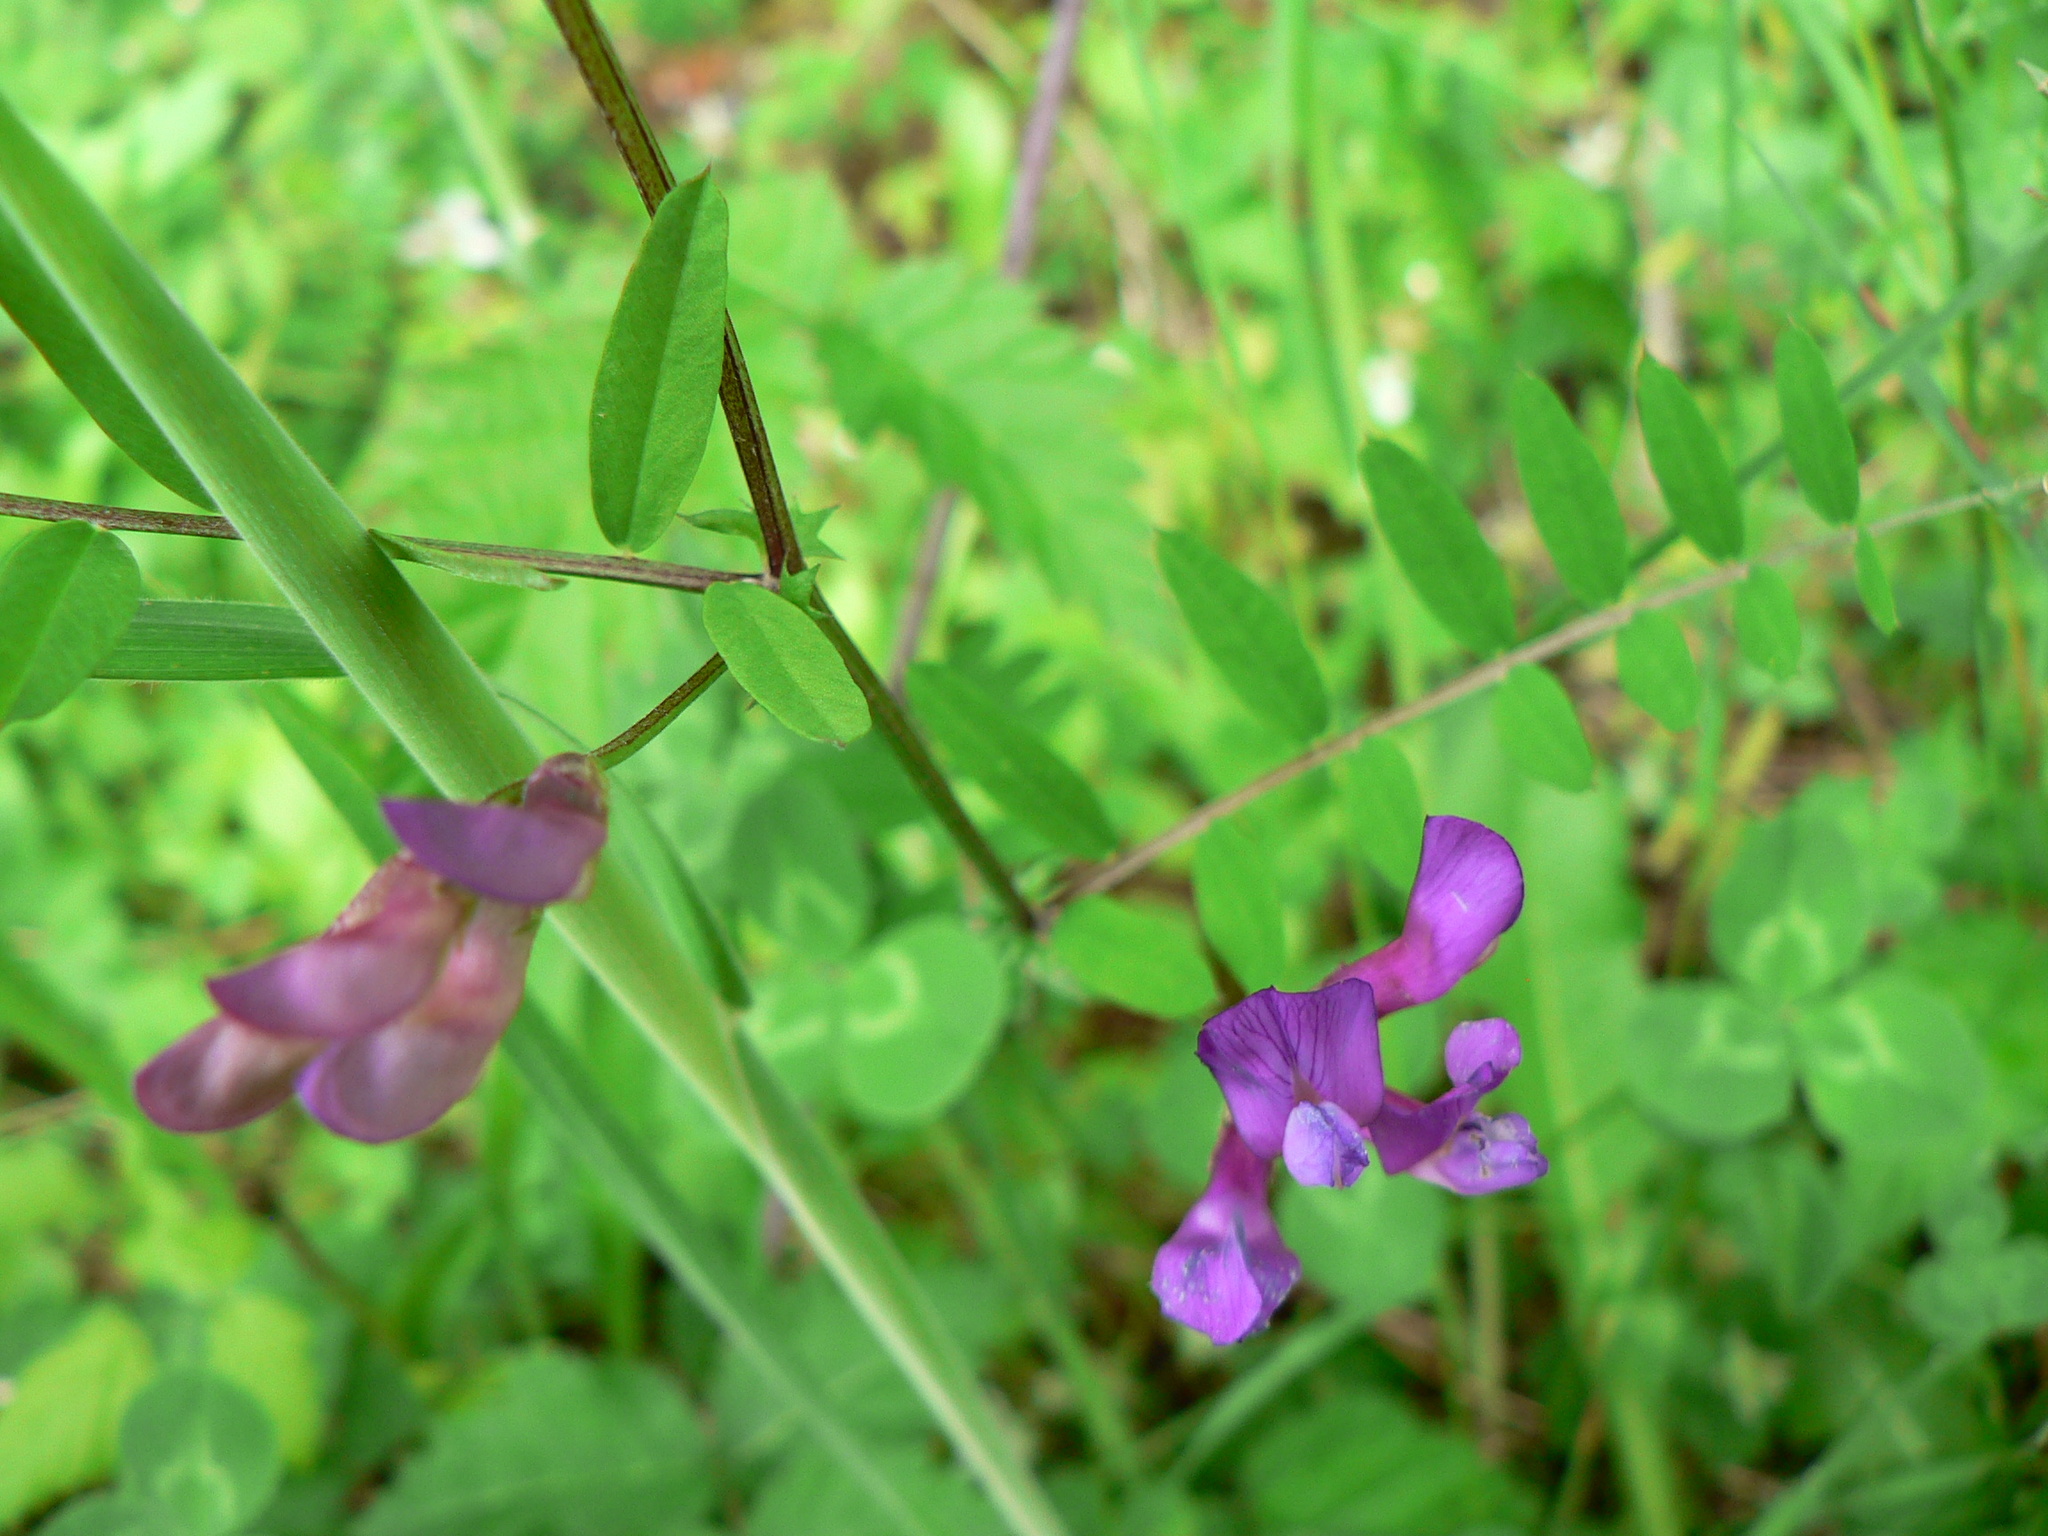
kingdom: Plantae
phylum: Tracheophyta
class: Magnoliopsida
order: Fabales
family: Fabaceae
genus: Vicia
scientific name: Vicia americana
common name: American vetch
